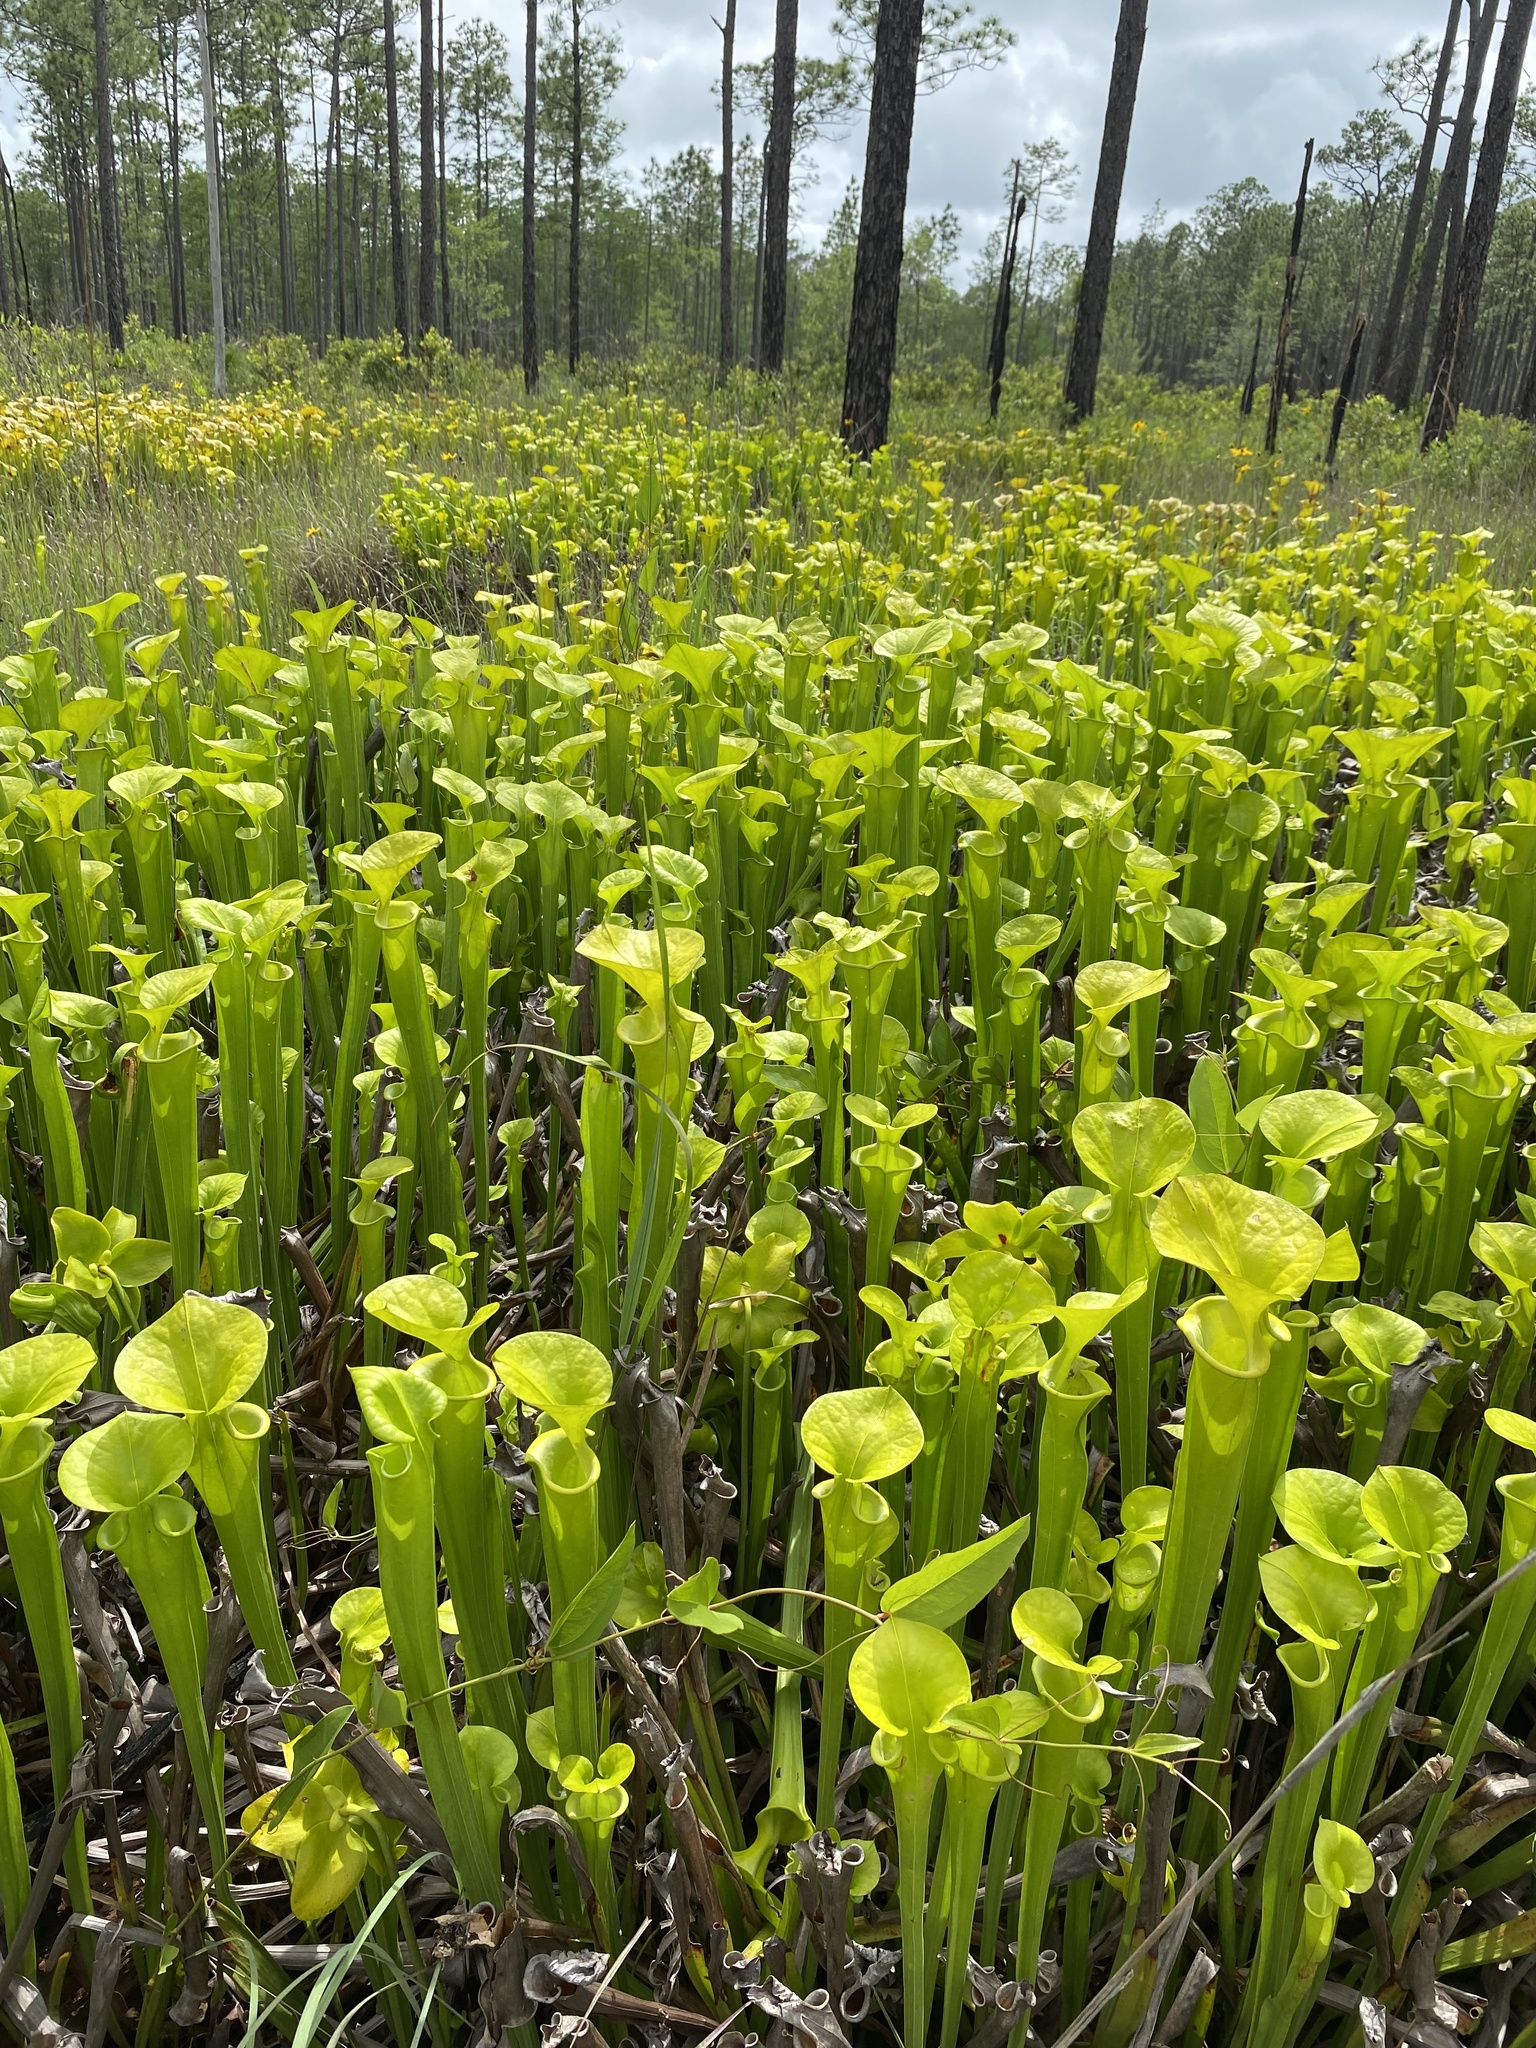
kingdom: Plantae
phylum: Tracheophyta
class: Magnoliopsida
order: Ericales
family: Sarraceniaceae
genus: Sarracenia
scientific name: Sarracenia flava
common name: Trumpets
